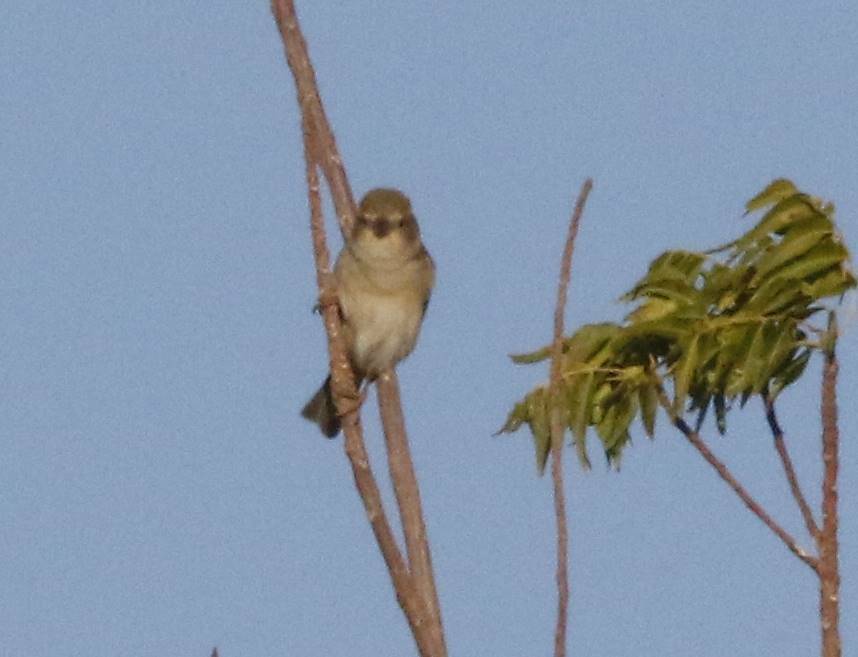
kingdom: Animalia
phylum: Chordata
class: Aves
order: Passeriformes
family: Passeridae
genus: Passer
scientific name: Passer domesticus
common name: House sparrow
